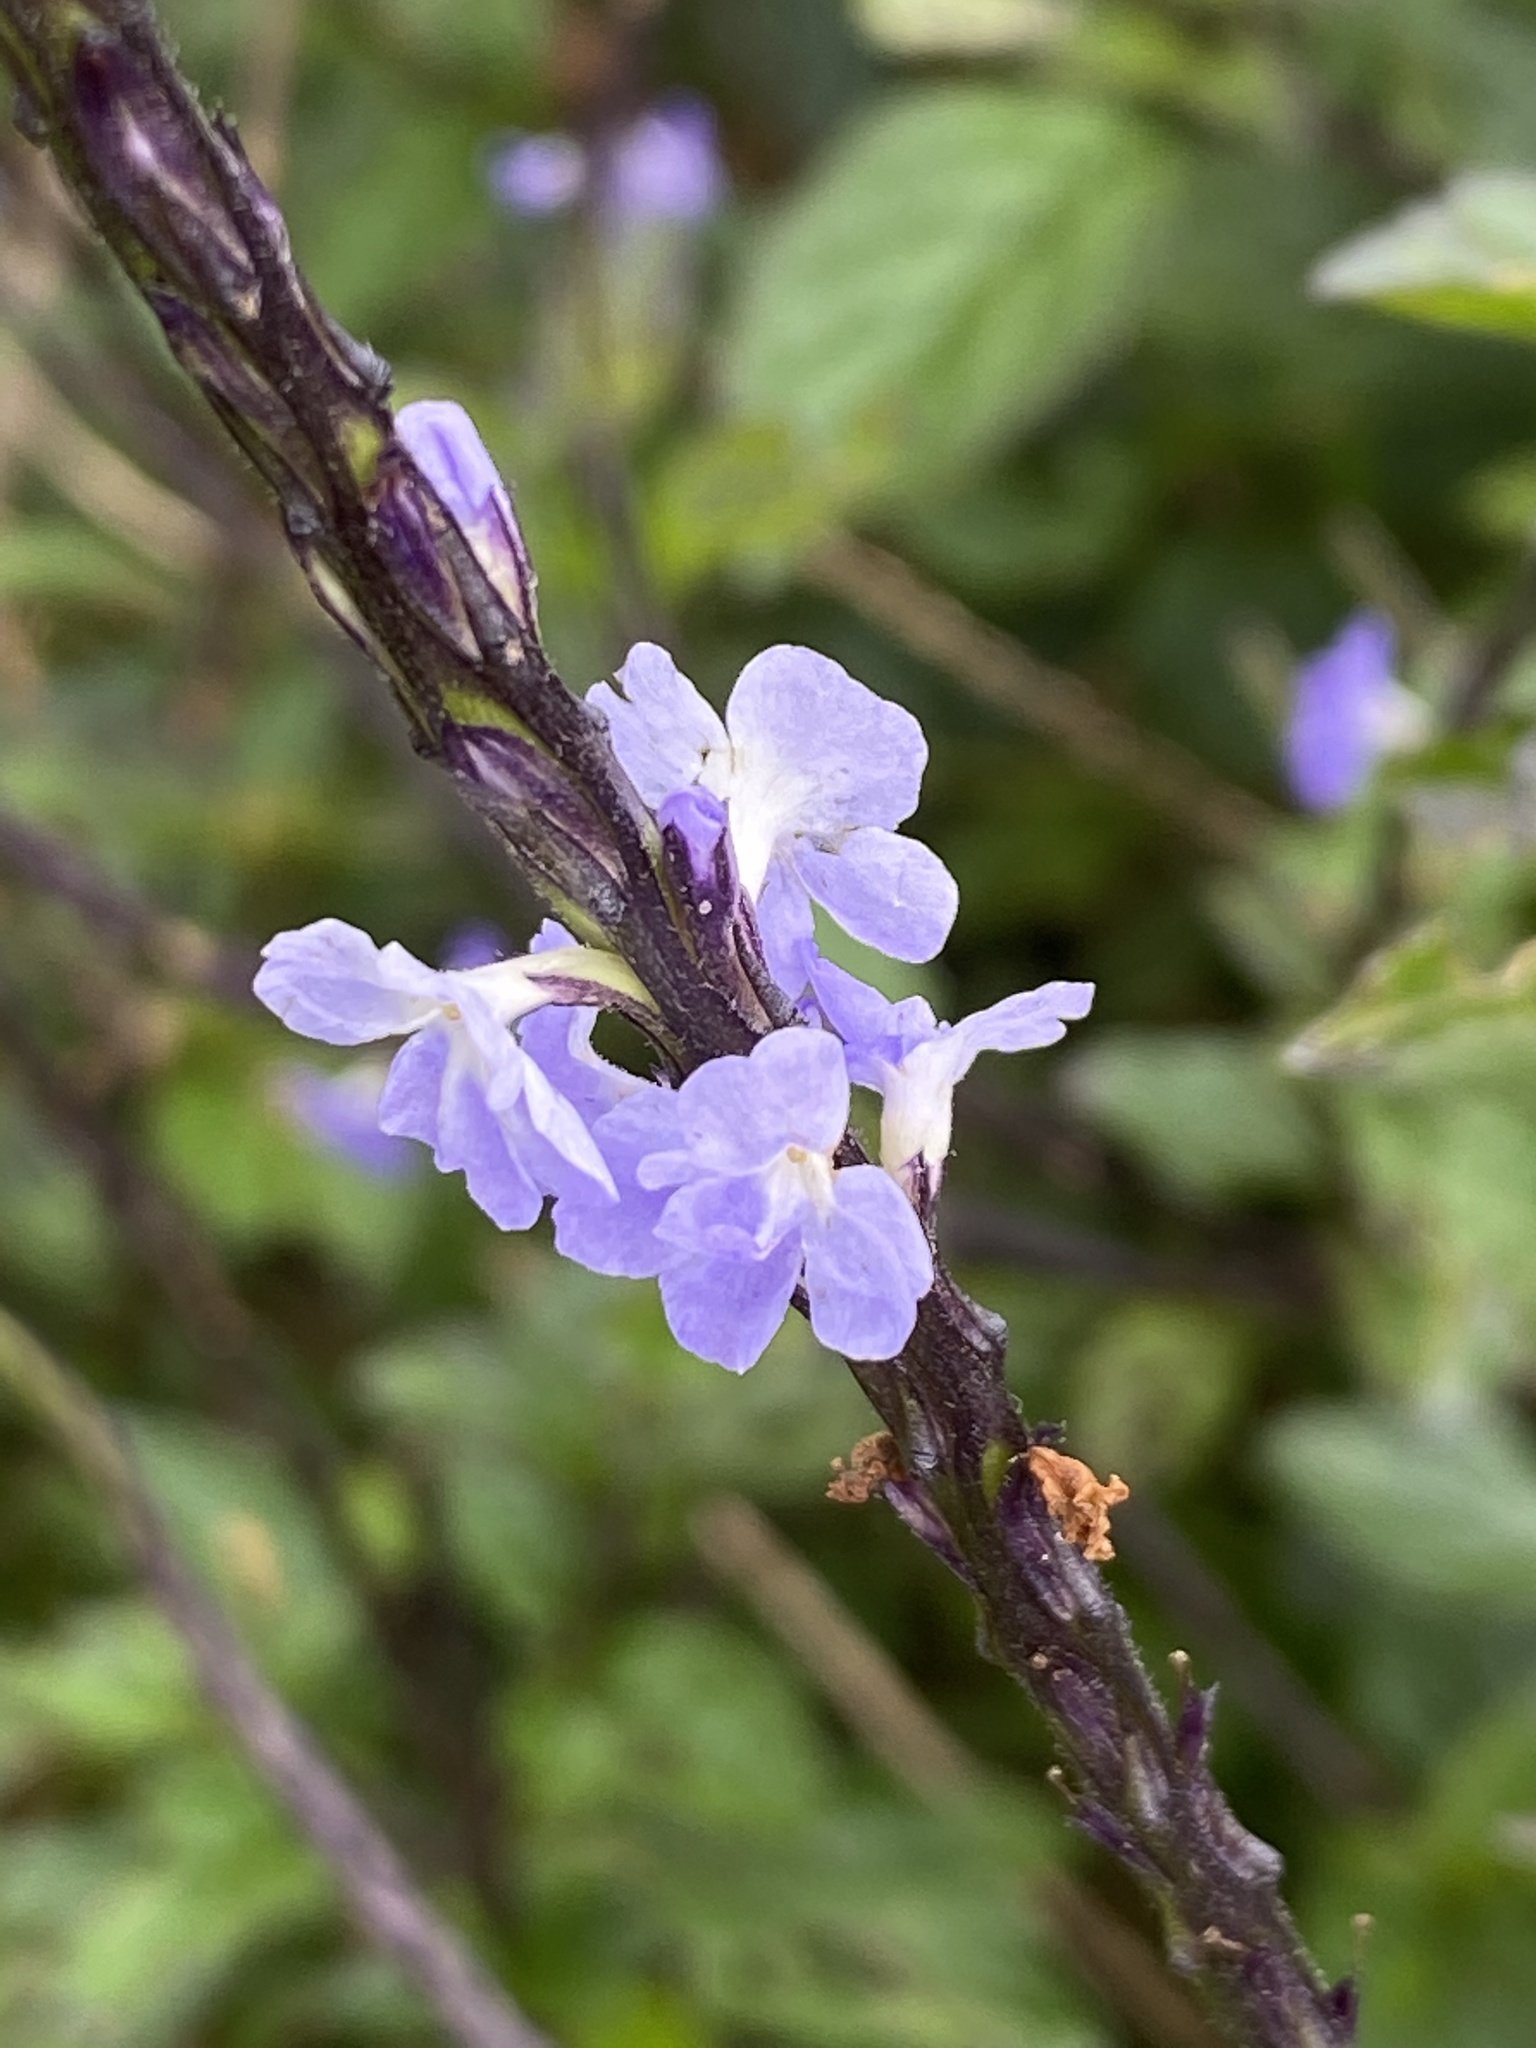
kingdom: Plantae
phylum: Tracheophyta
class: Magnoliopsida
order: Lamiales
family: Verbenaceae
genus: Stachytarpheta
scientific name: Stachytarpheta cayennensis
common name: Cayenne porterweed
